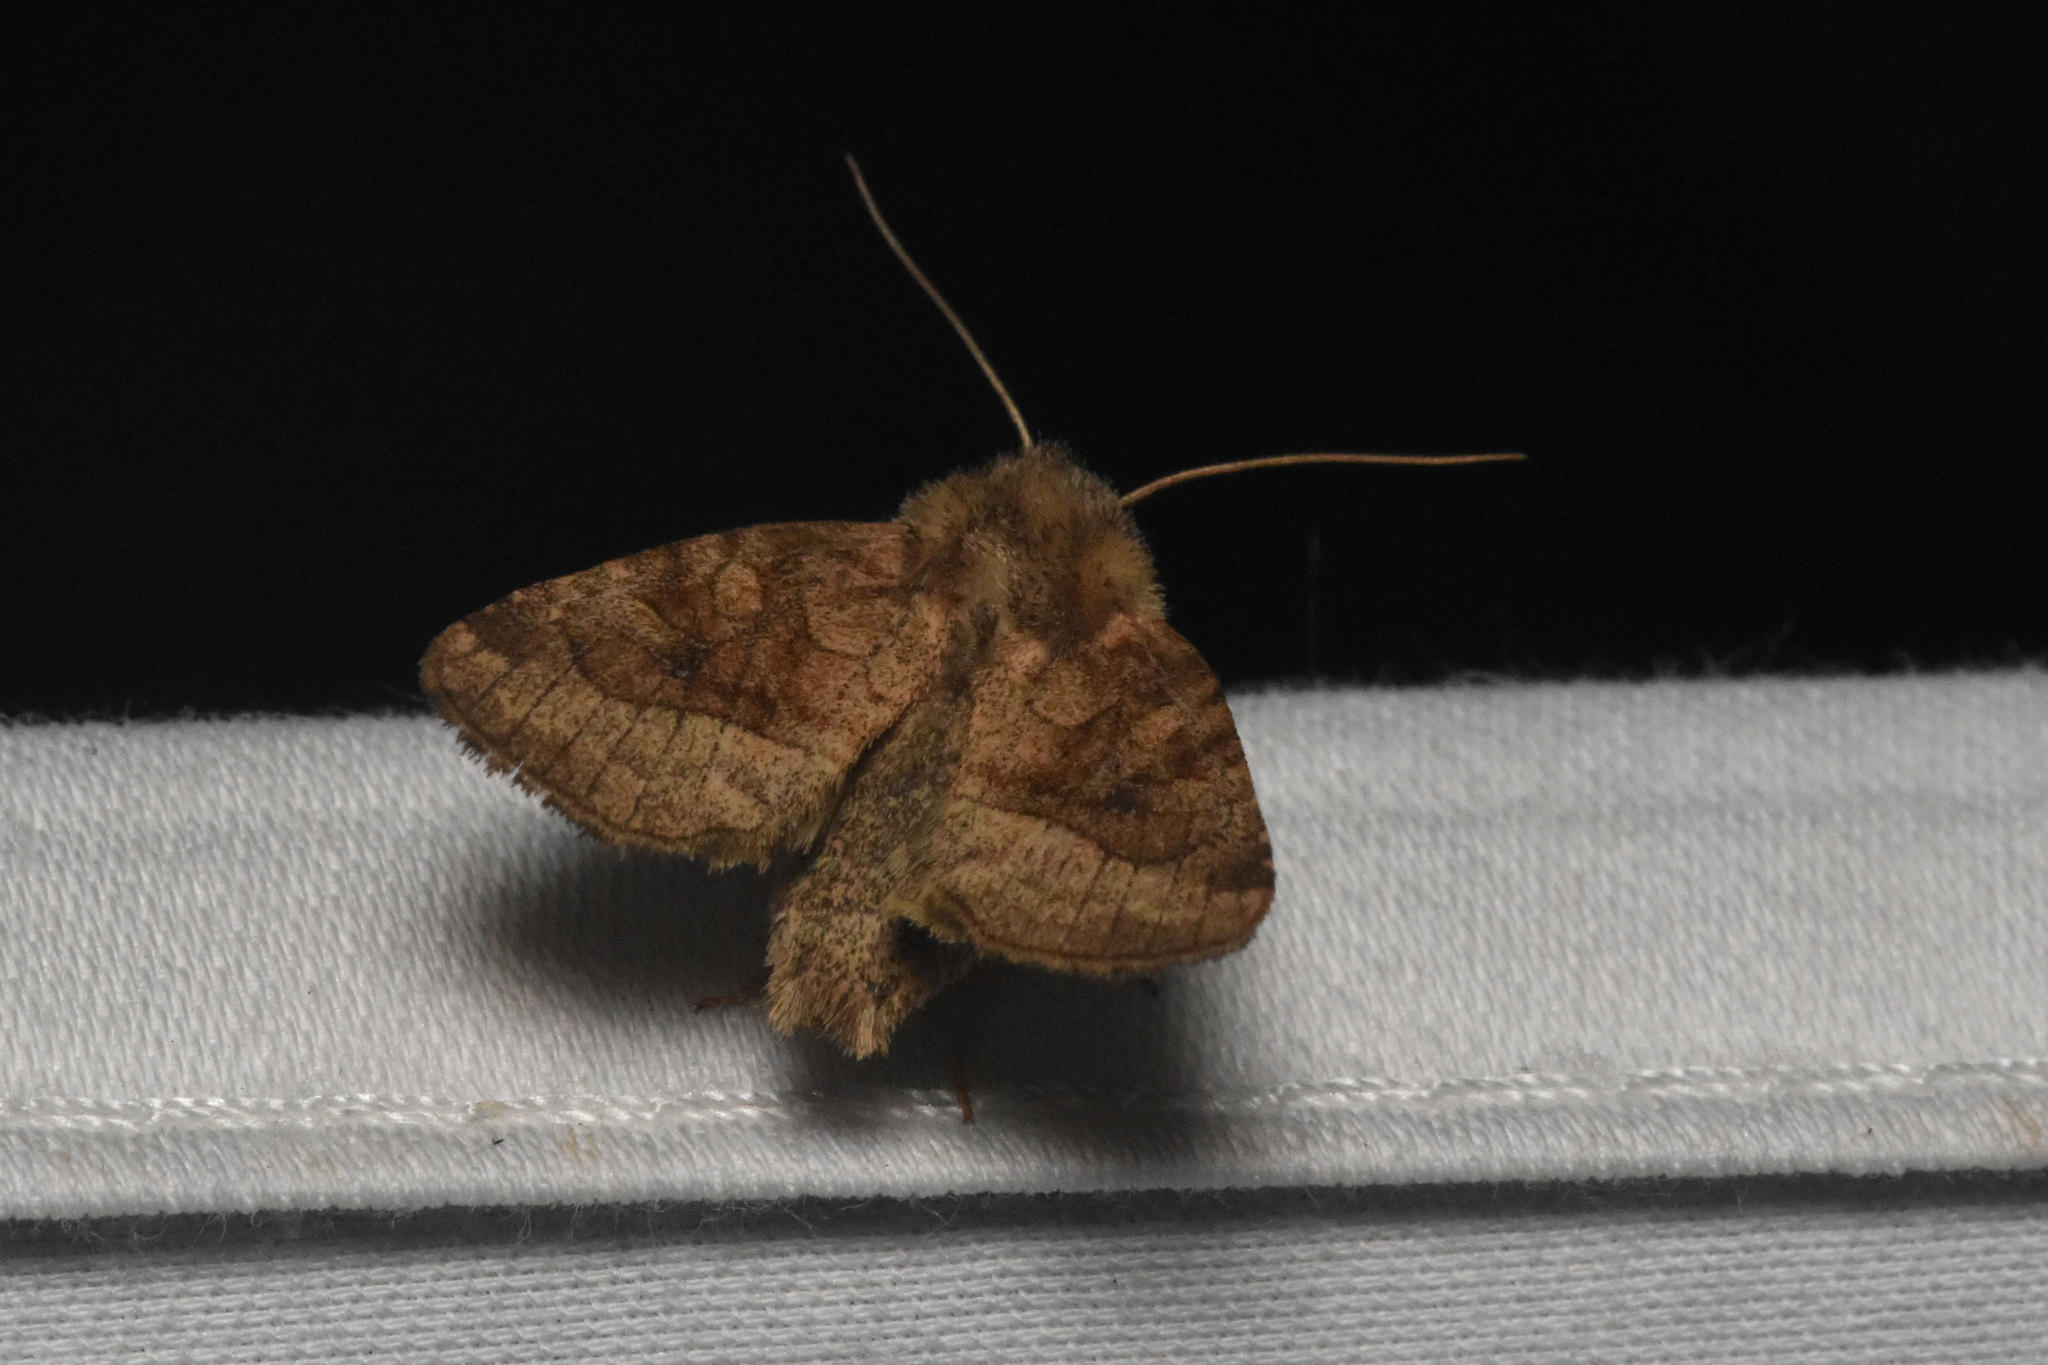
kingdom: Animalia
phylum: Arthropoda
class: Insecta
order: Lepidoptera
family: Noctuidae
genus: Lacinipolia
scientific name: Lacinipolia lorea
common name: Bridled arches moth
